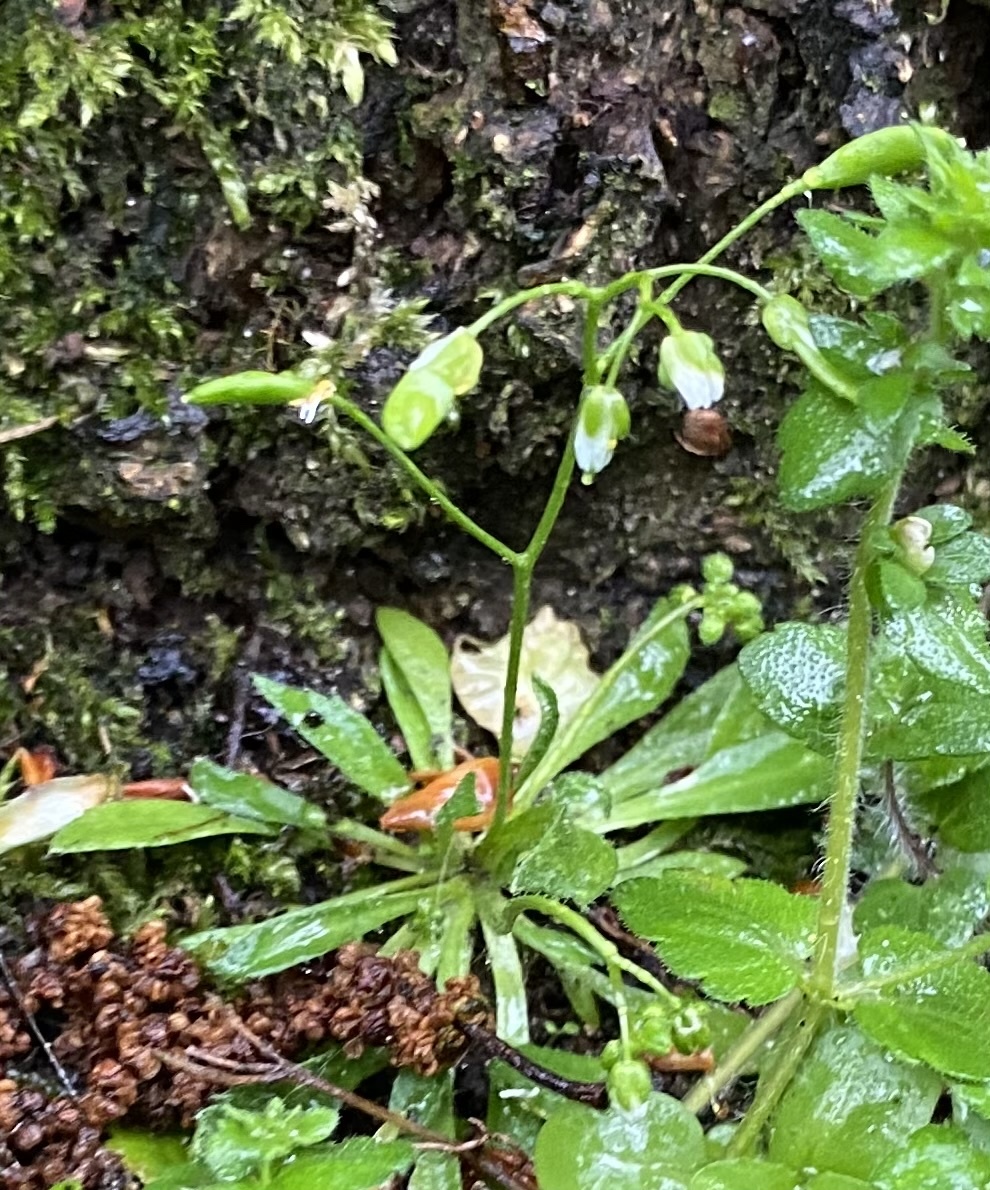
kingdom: Plantae
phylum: Tracheophyta
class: Magnoliopsida
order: Brassicales
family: Brassicaceae
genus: Draba
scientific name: Draba verna
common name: Spring draba
